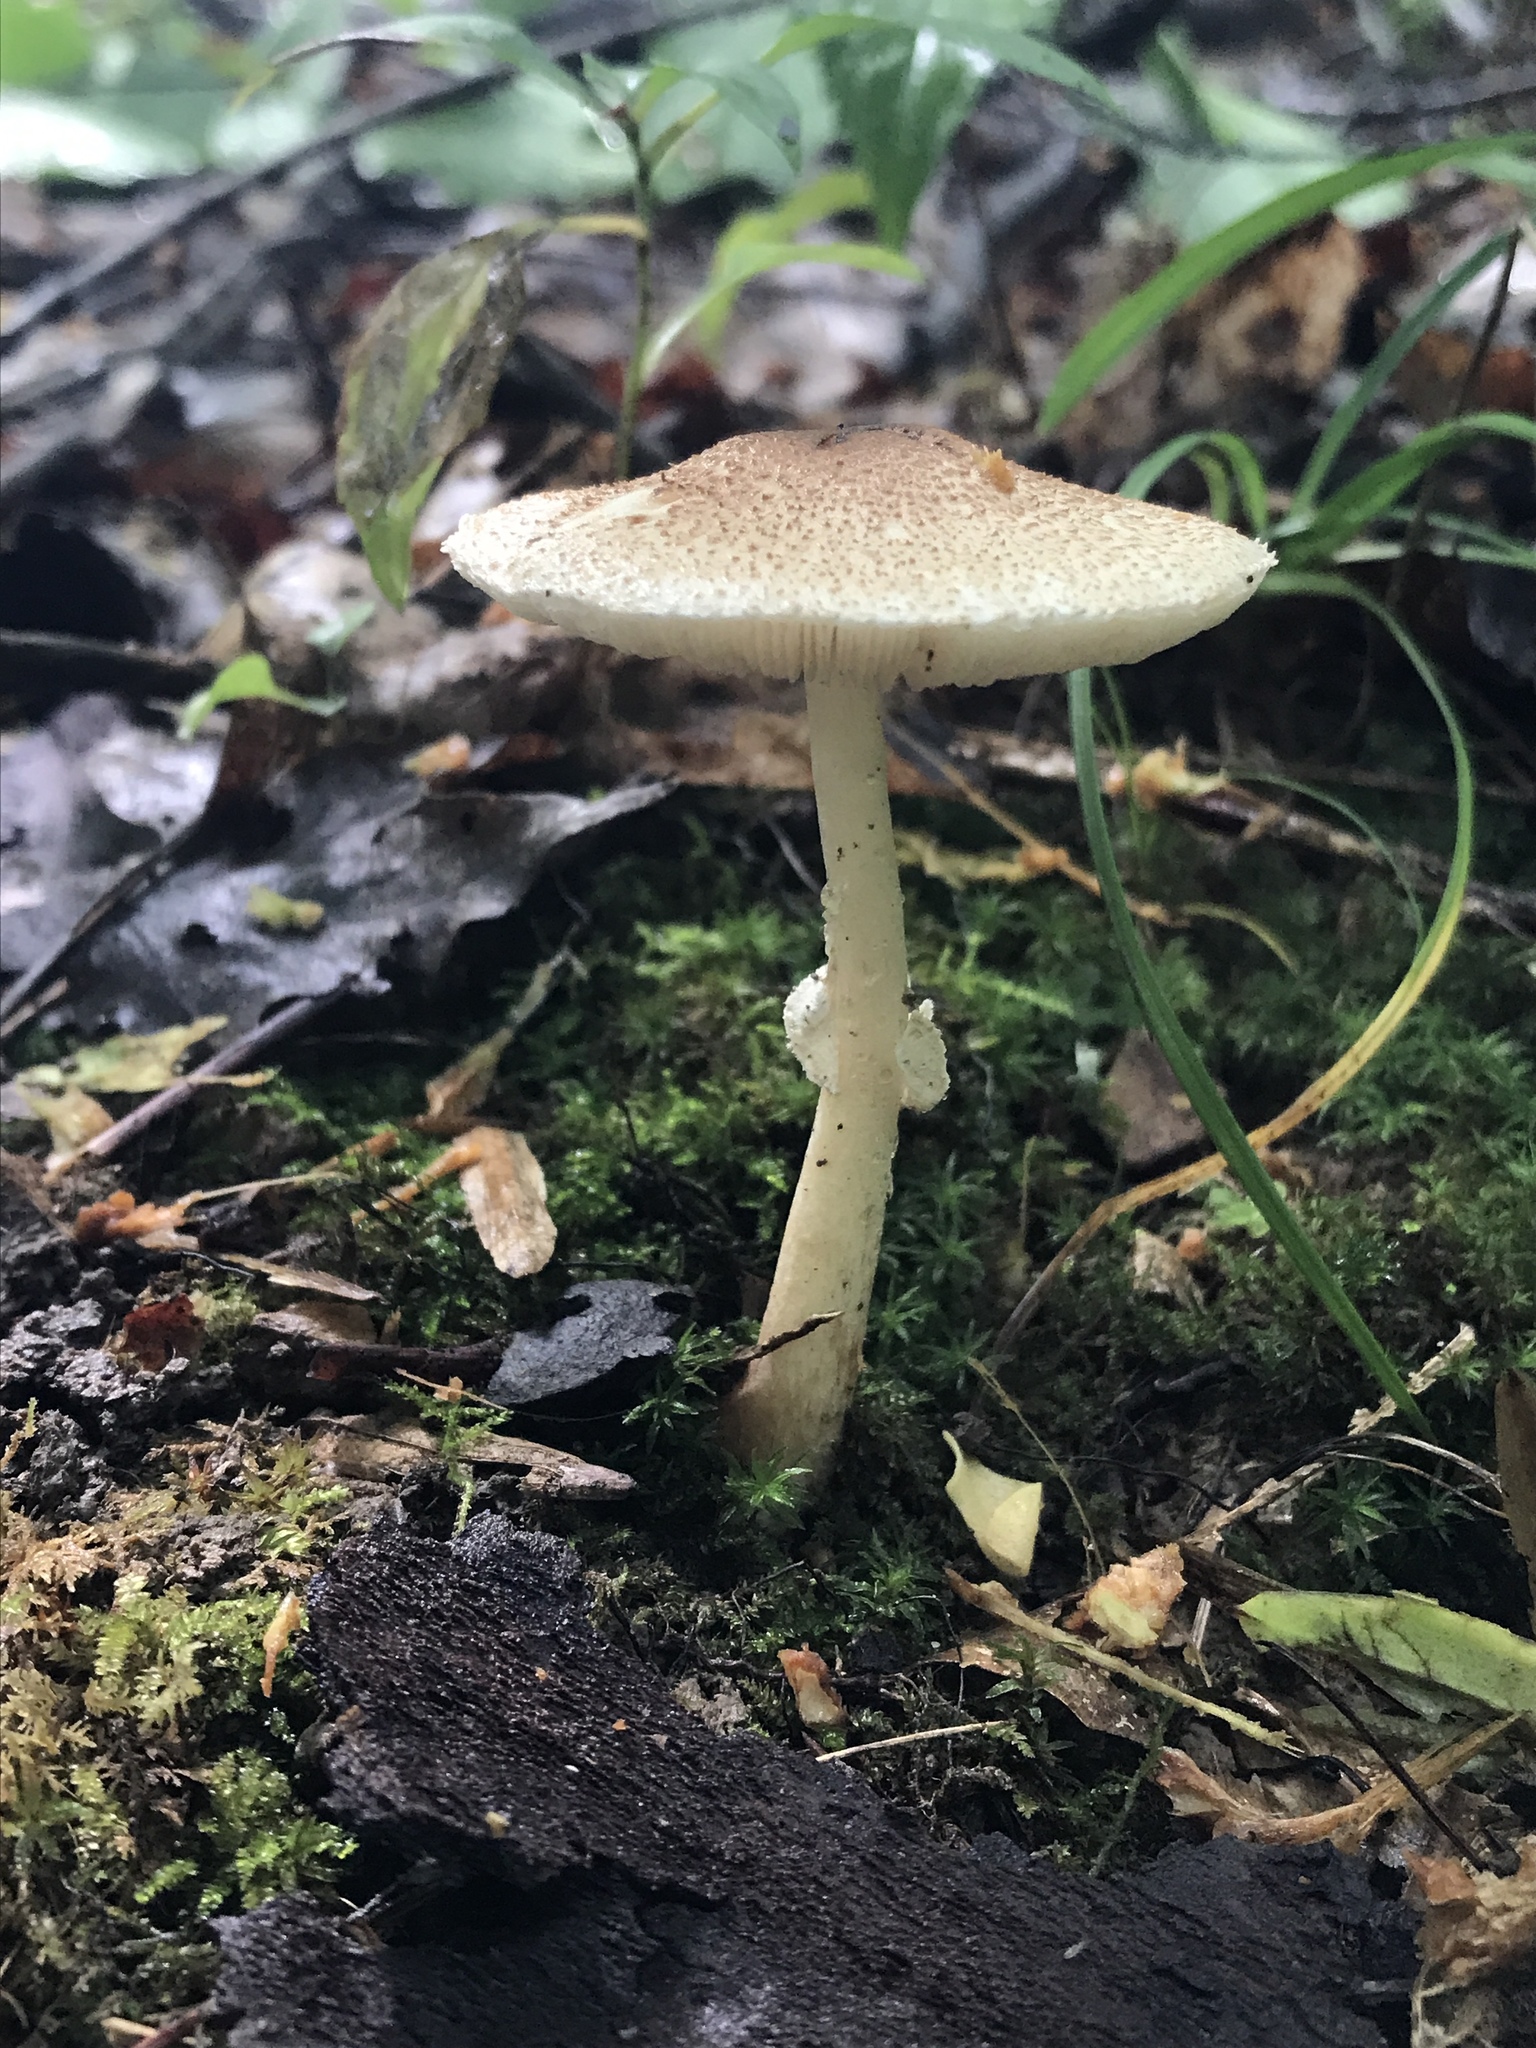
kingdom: Fungi
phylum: Basidiomycota
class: Agaricomycetes
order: Agaricales
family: Agaricaceae
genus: Lepiota
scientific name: Lepiota flammeotincta
